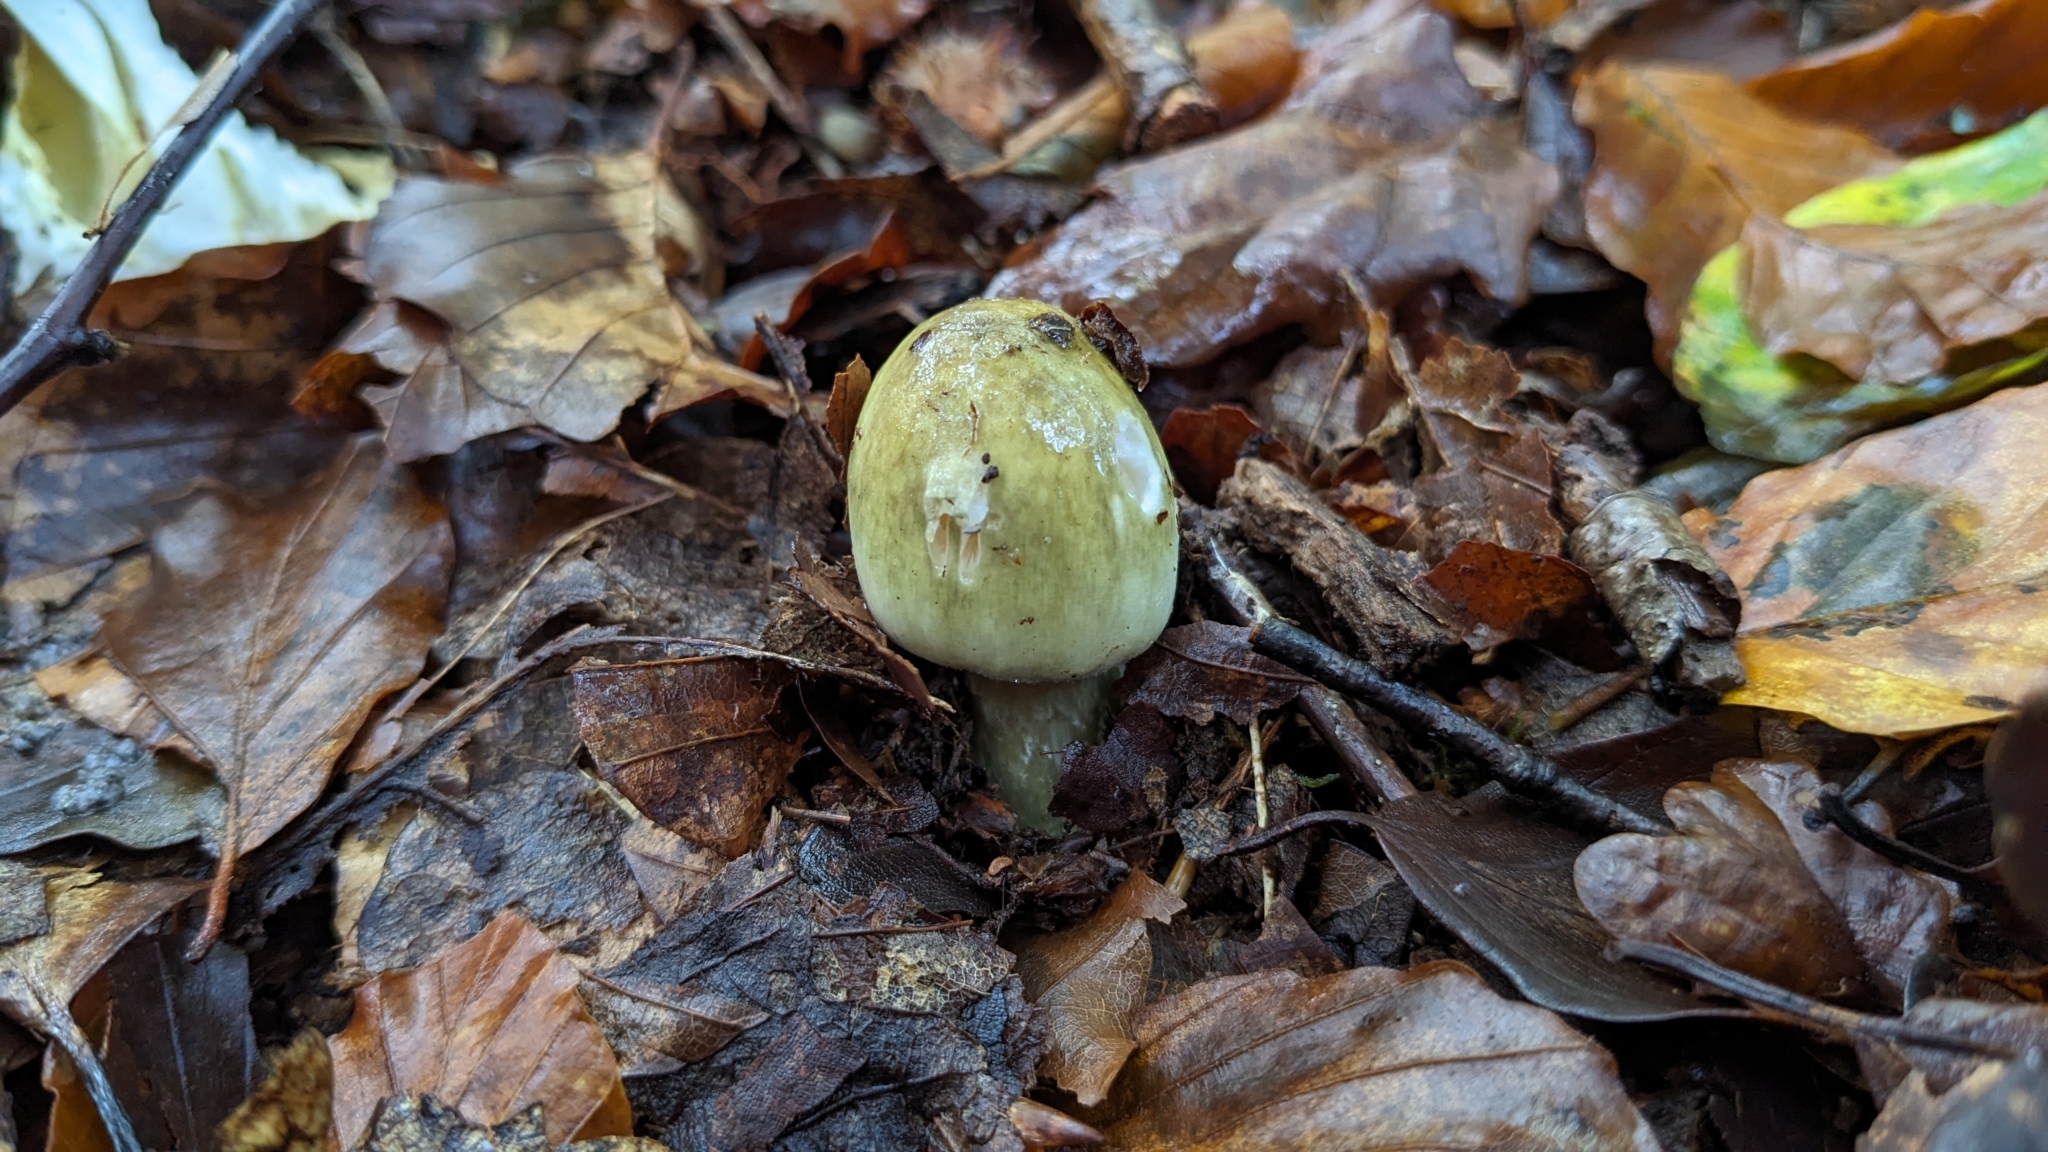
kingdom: Fungi
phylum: Basidiomycota
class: Agaricomycetes
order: Agaricales
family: Amanitaceae
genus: Amanita
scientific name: Amanita phalloides
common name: Death cap
